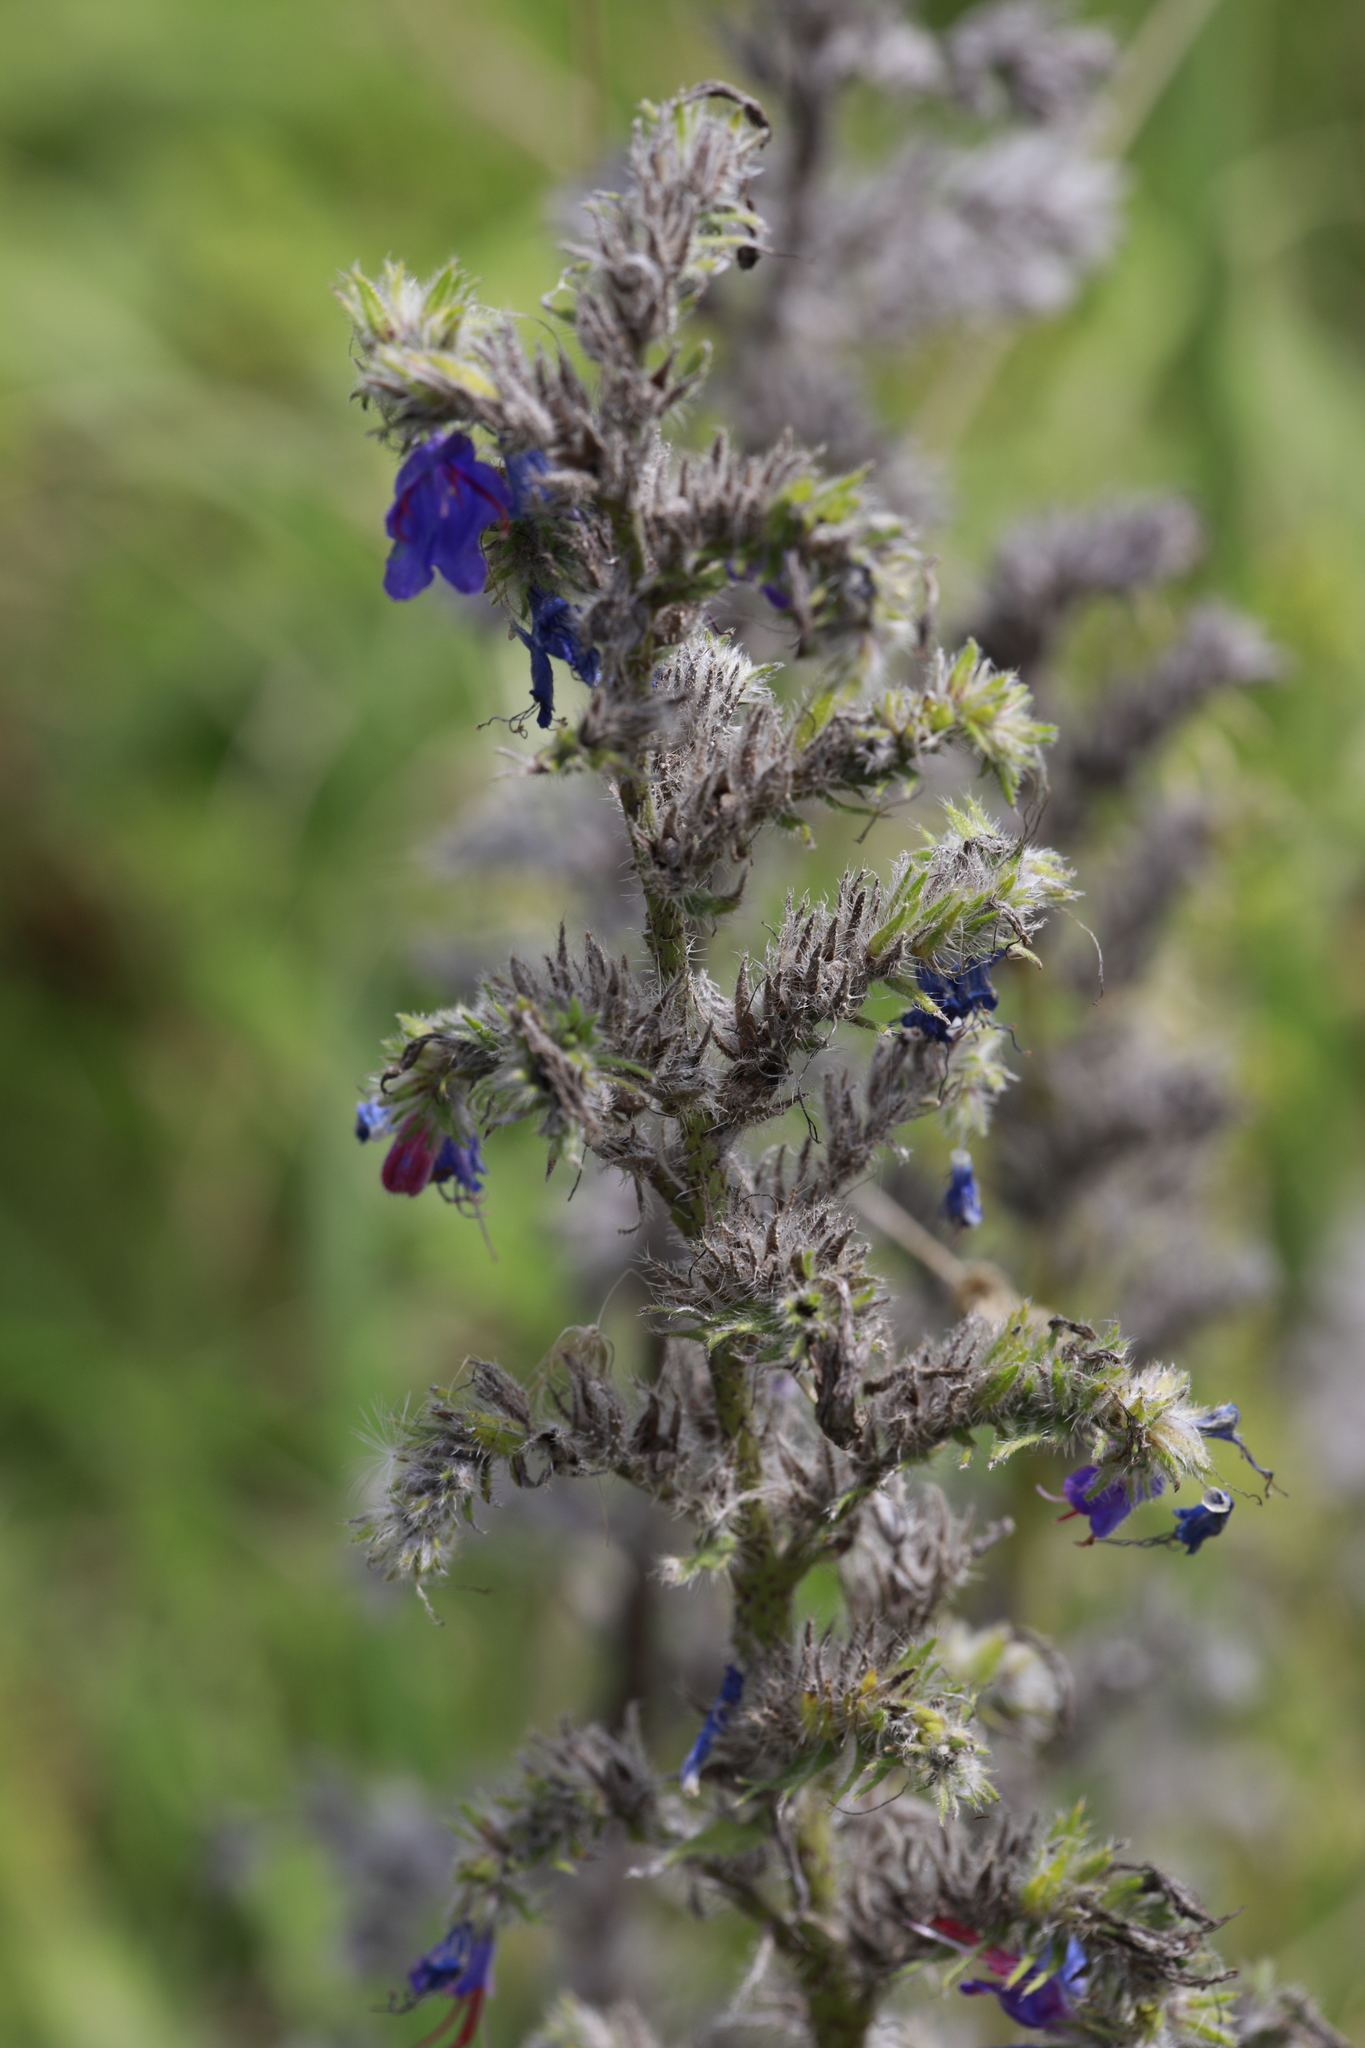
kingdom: Plantae
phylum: Tracheophyta
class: Magnoliopsida
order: Boraginales
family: Boraginaceae
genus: Echium
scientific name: Echium vulgare
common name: Common viper's bugloss
